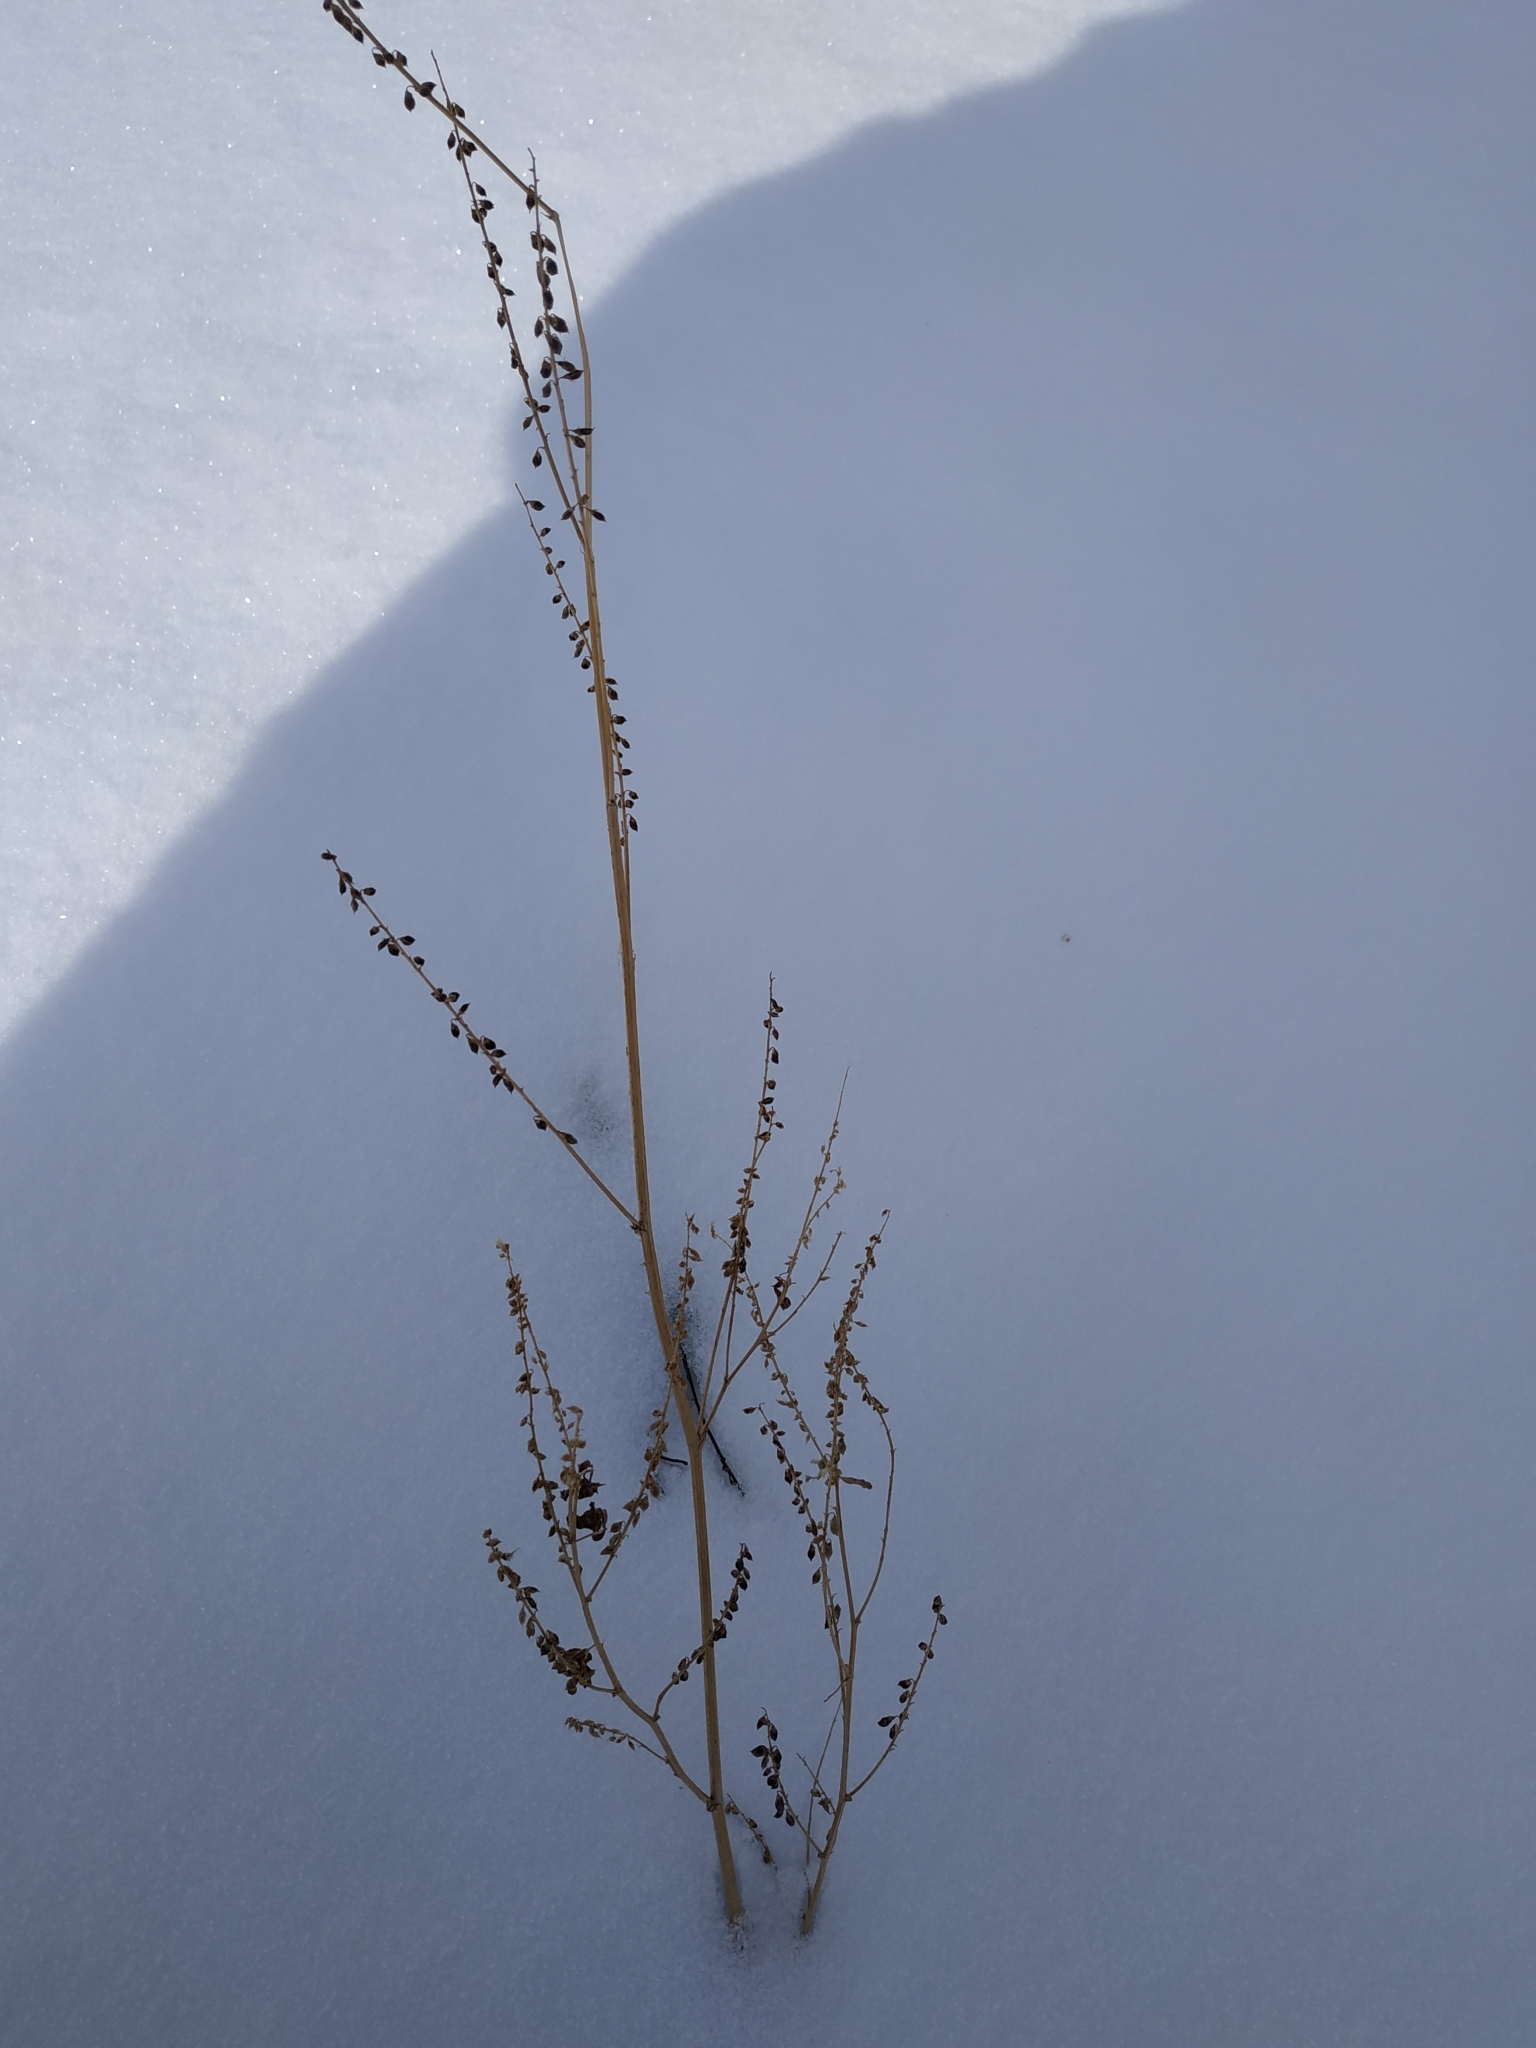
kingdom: Plantae
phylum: Tracheophyta
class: Magnoliopsida
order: Fabales
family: Fabaceae
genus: Melilotus
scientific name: Melilotus
